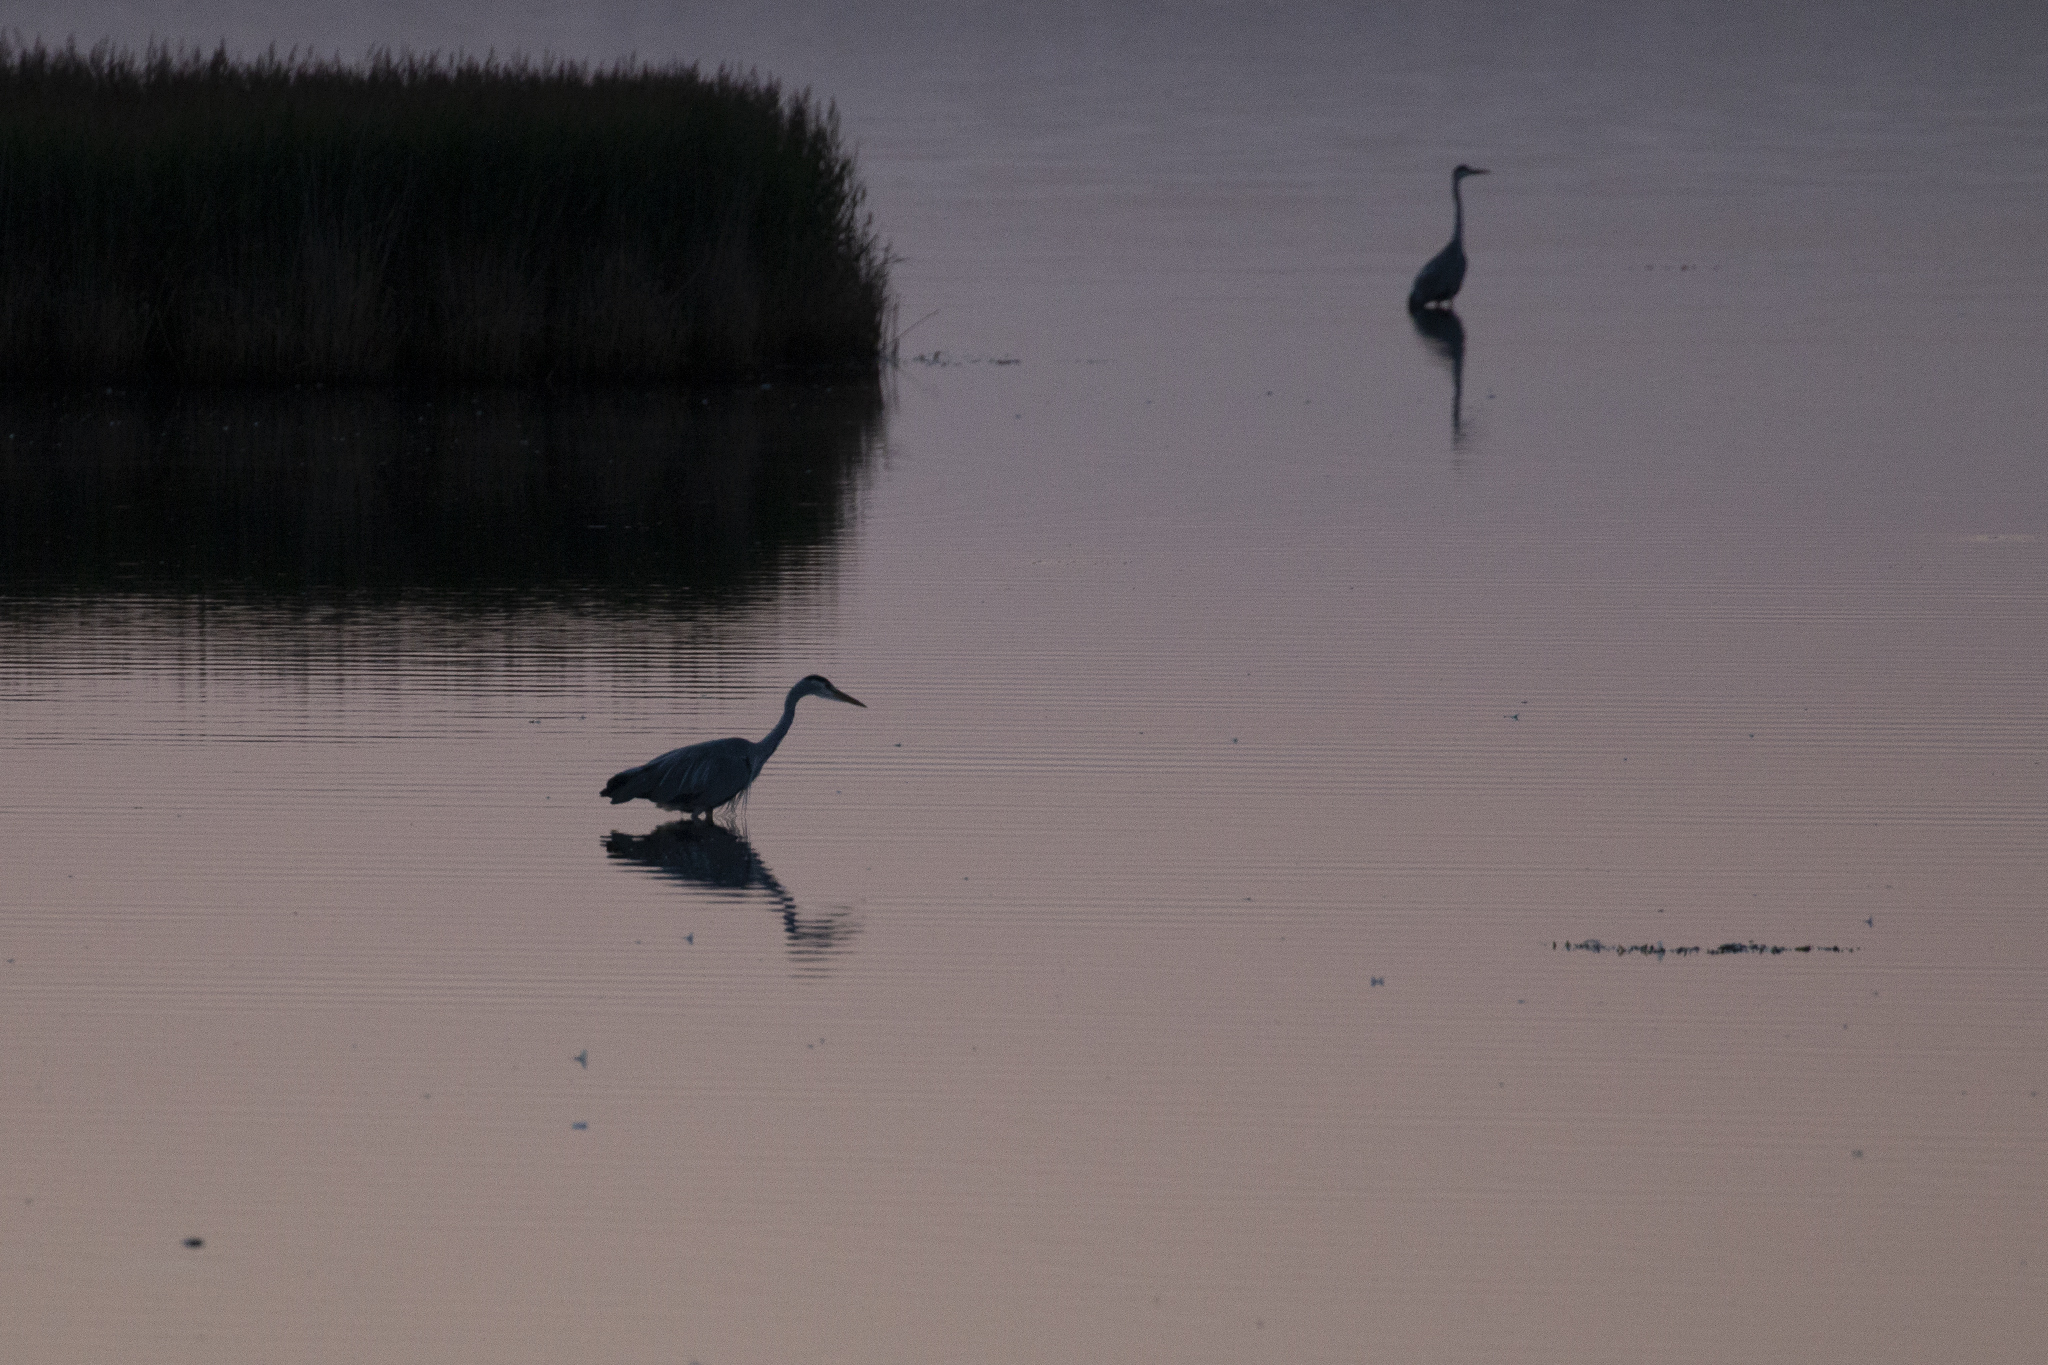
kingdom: Animalia
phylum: Chordata
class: Aves
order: Pelecaniformes
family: Ardeidae
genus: Ardea
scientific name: Ardea cinerea
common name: Grey heron
